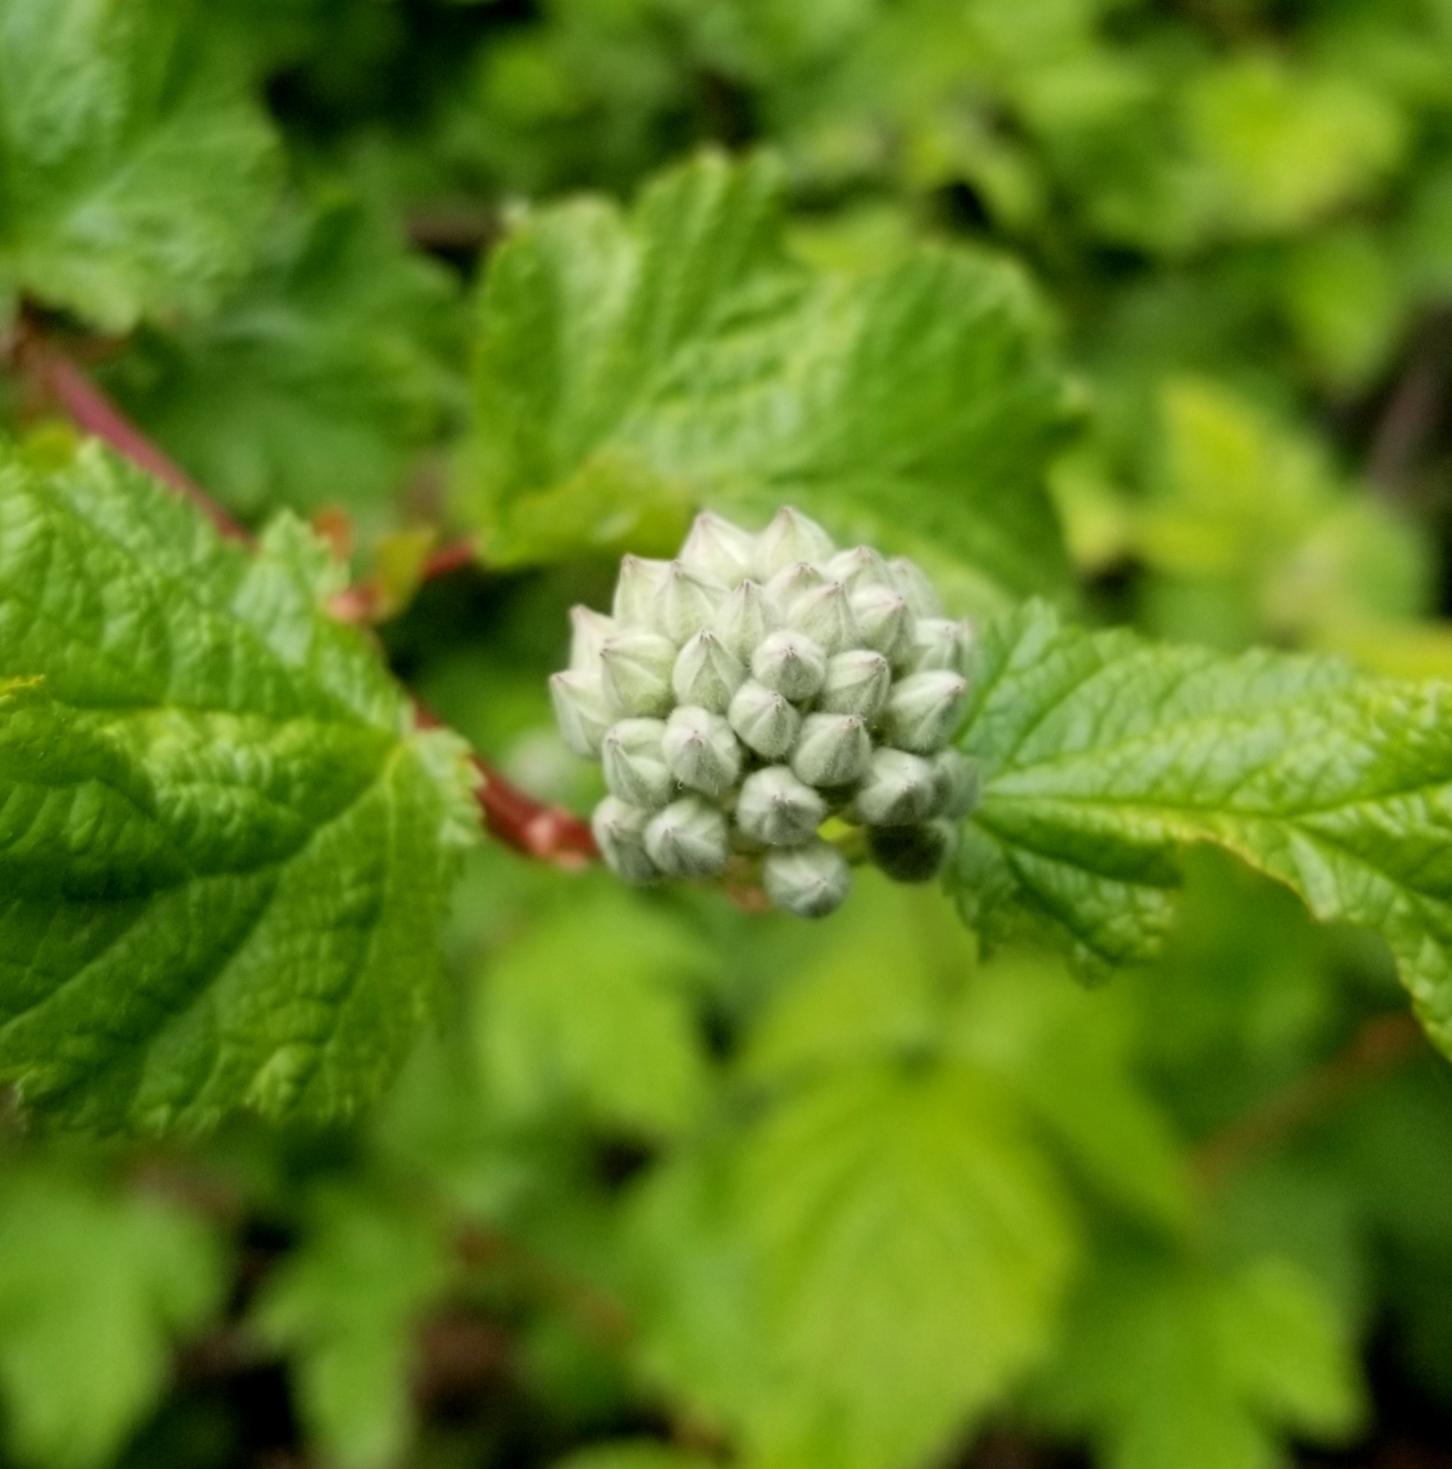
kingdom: Plantae
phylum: Tracheophyta
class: Magnoliopsida
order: Rosales
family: Rosaceae
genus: Physocarpus
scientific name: Physocarpus capitatus
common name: Pacific ninebark
